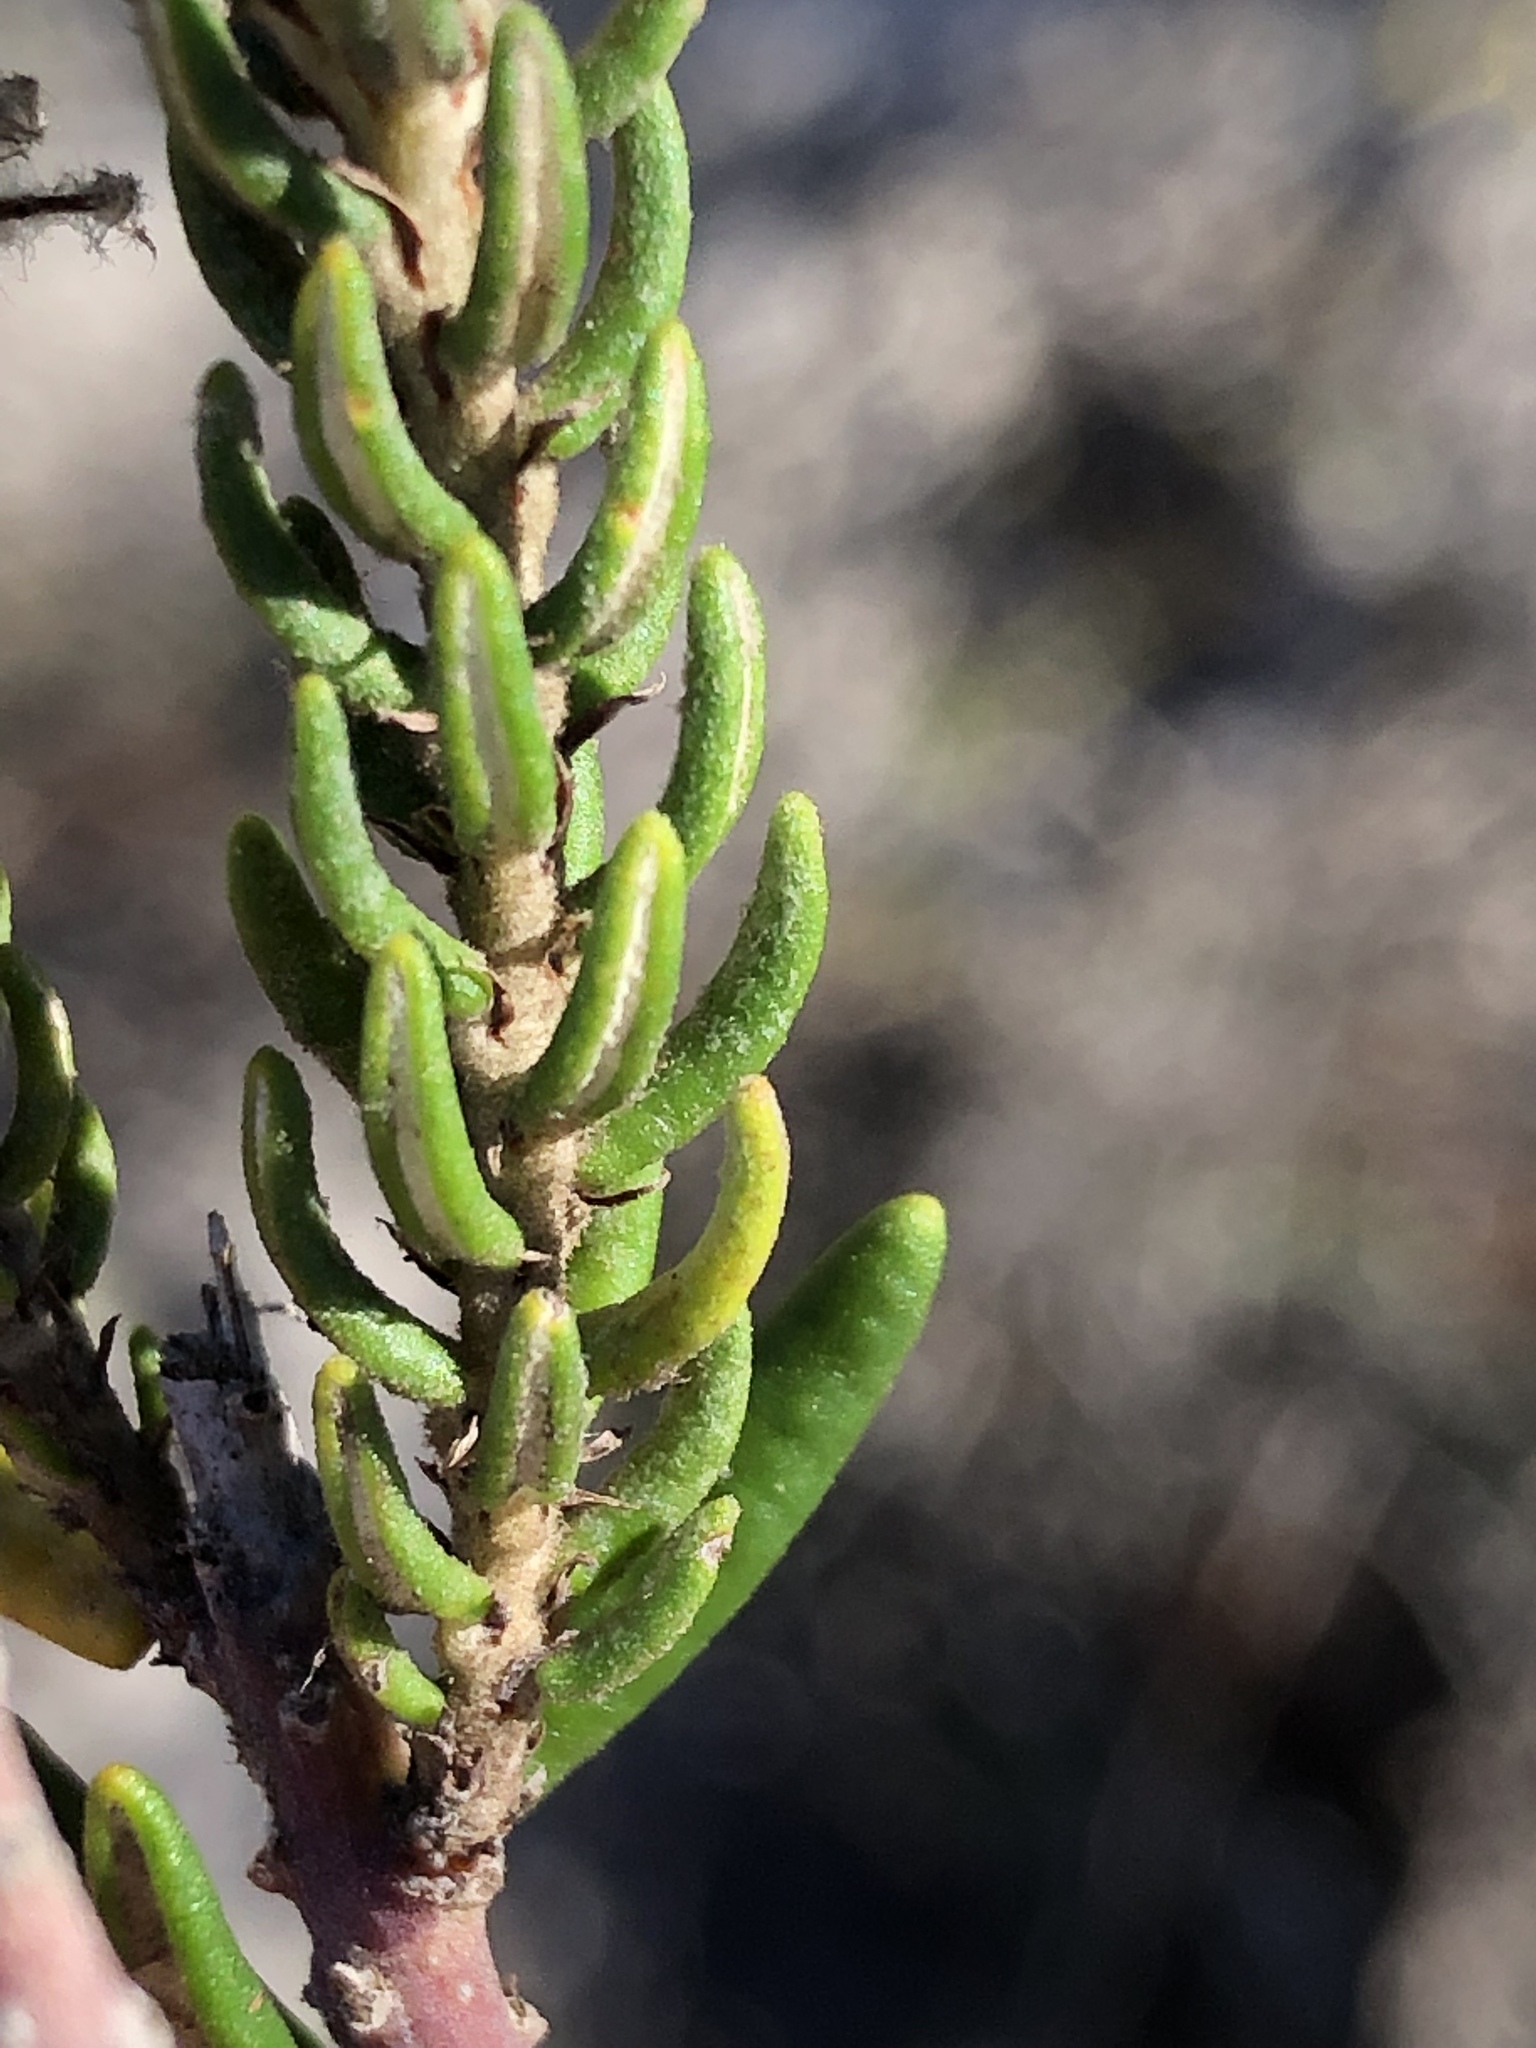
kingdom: Plantae
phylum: Tracheophyta
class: Magnoliopsida
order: Rosales
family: Rhamnaceae
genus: Trichocephalus
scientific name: Trichocephalus stipularis
